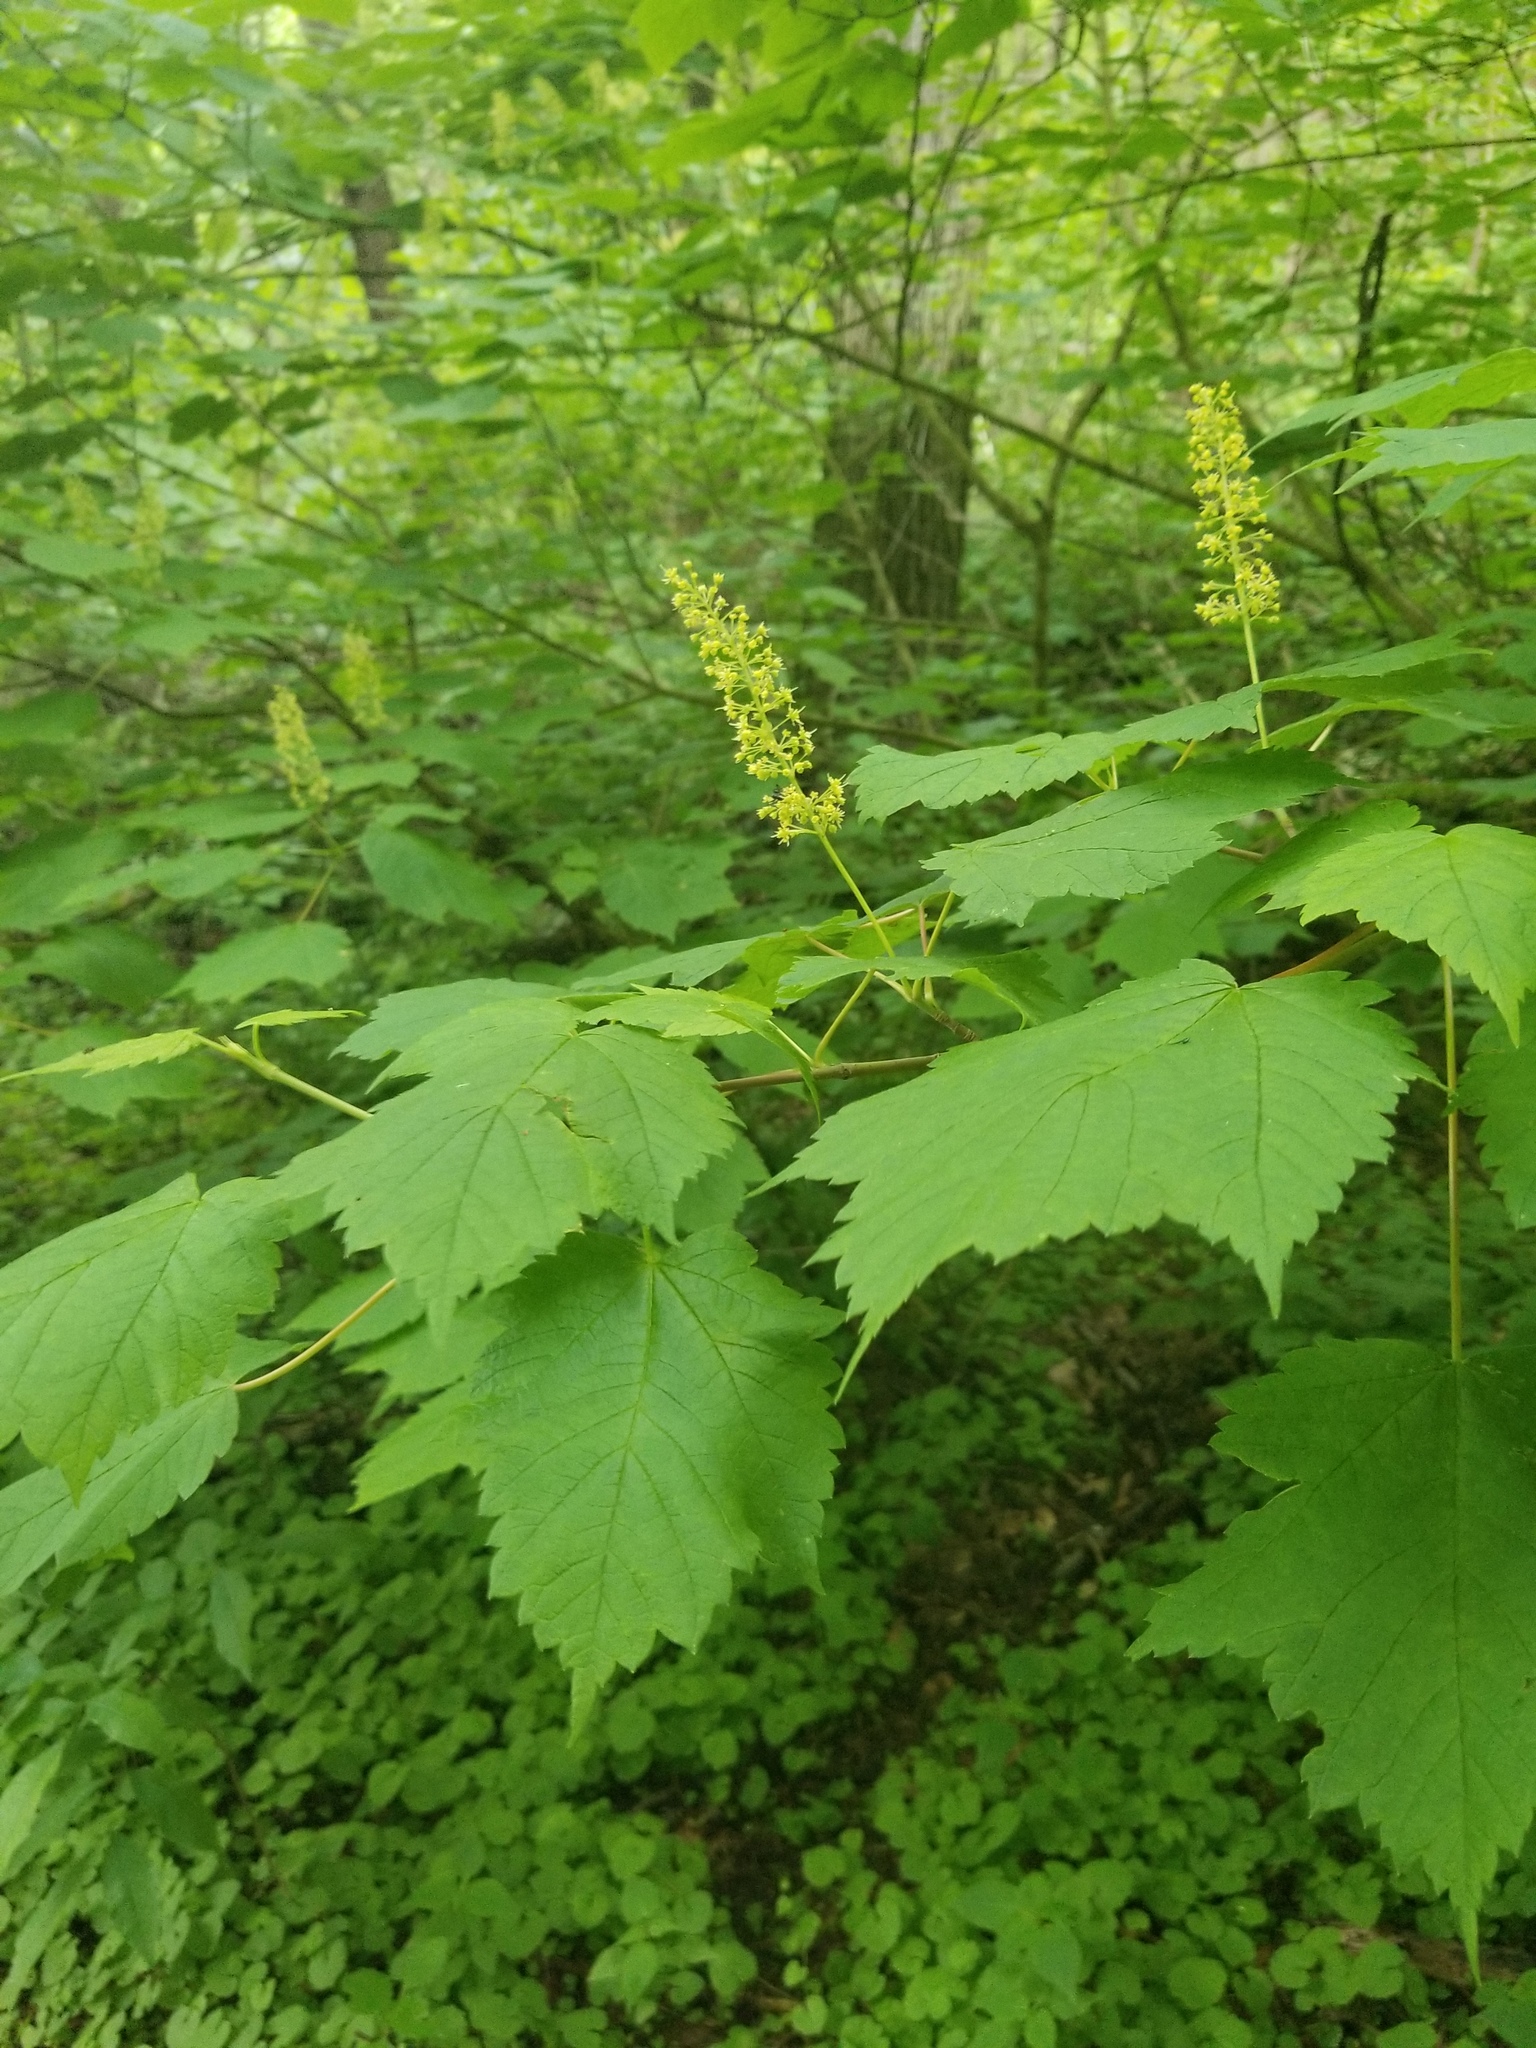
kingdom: Plantae
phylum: Tracheophyta
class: Magnoliopsida
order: Sapindales
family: Sapindaceae
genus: Acer
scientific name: Acer spicatum
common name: Mountain maple
